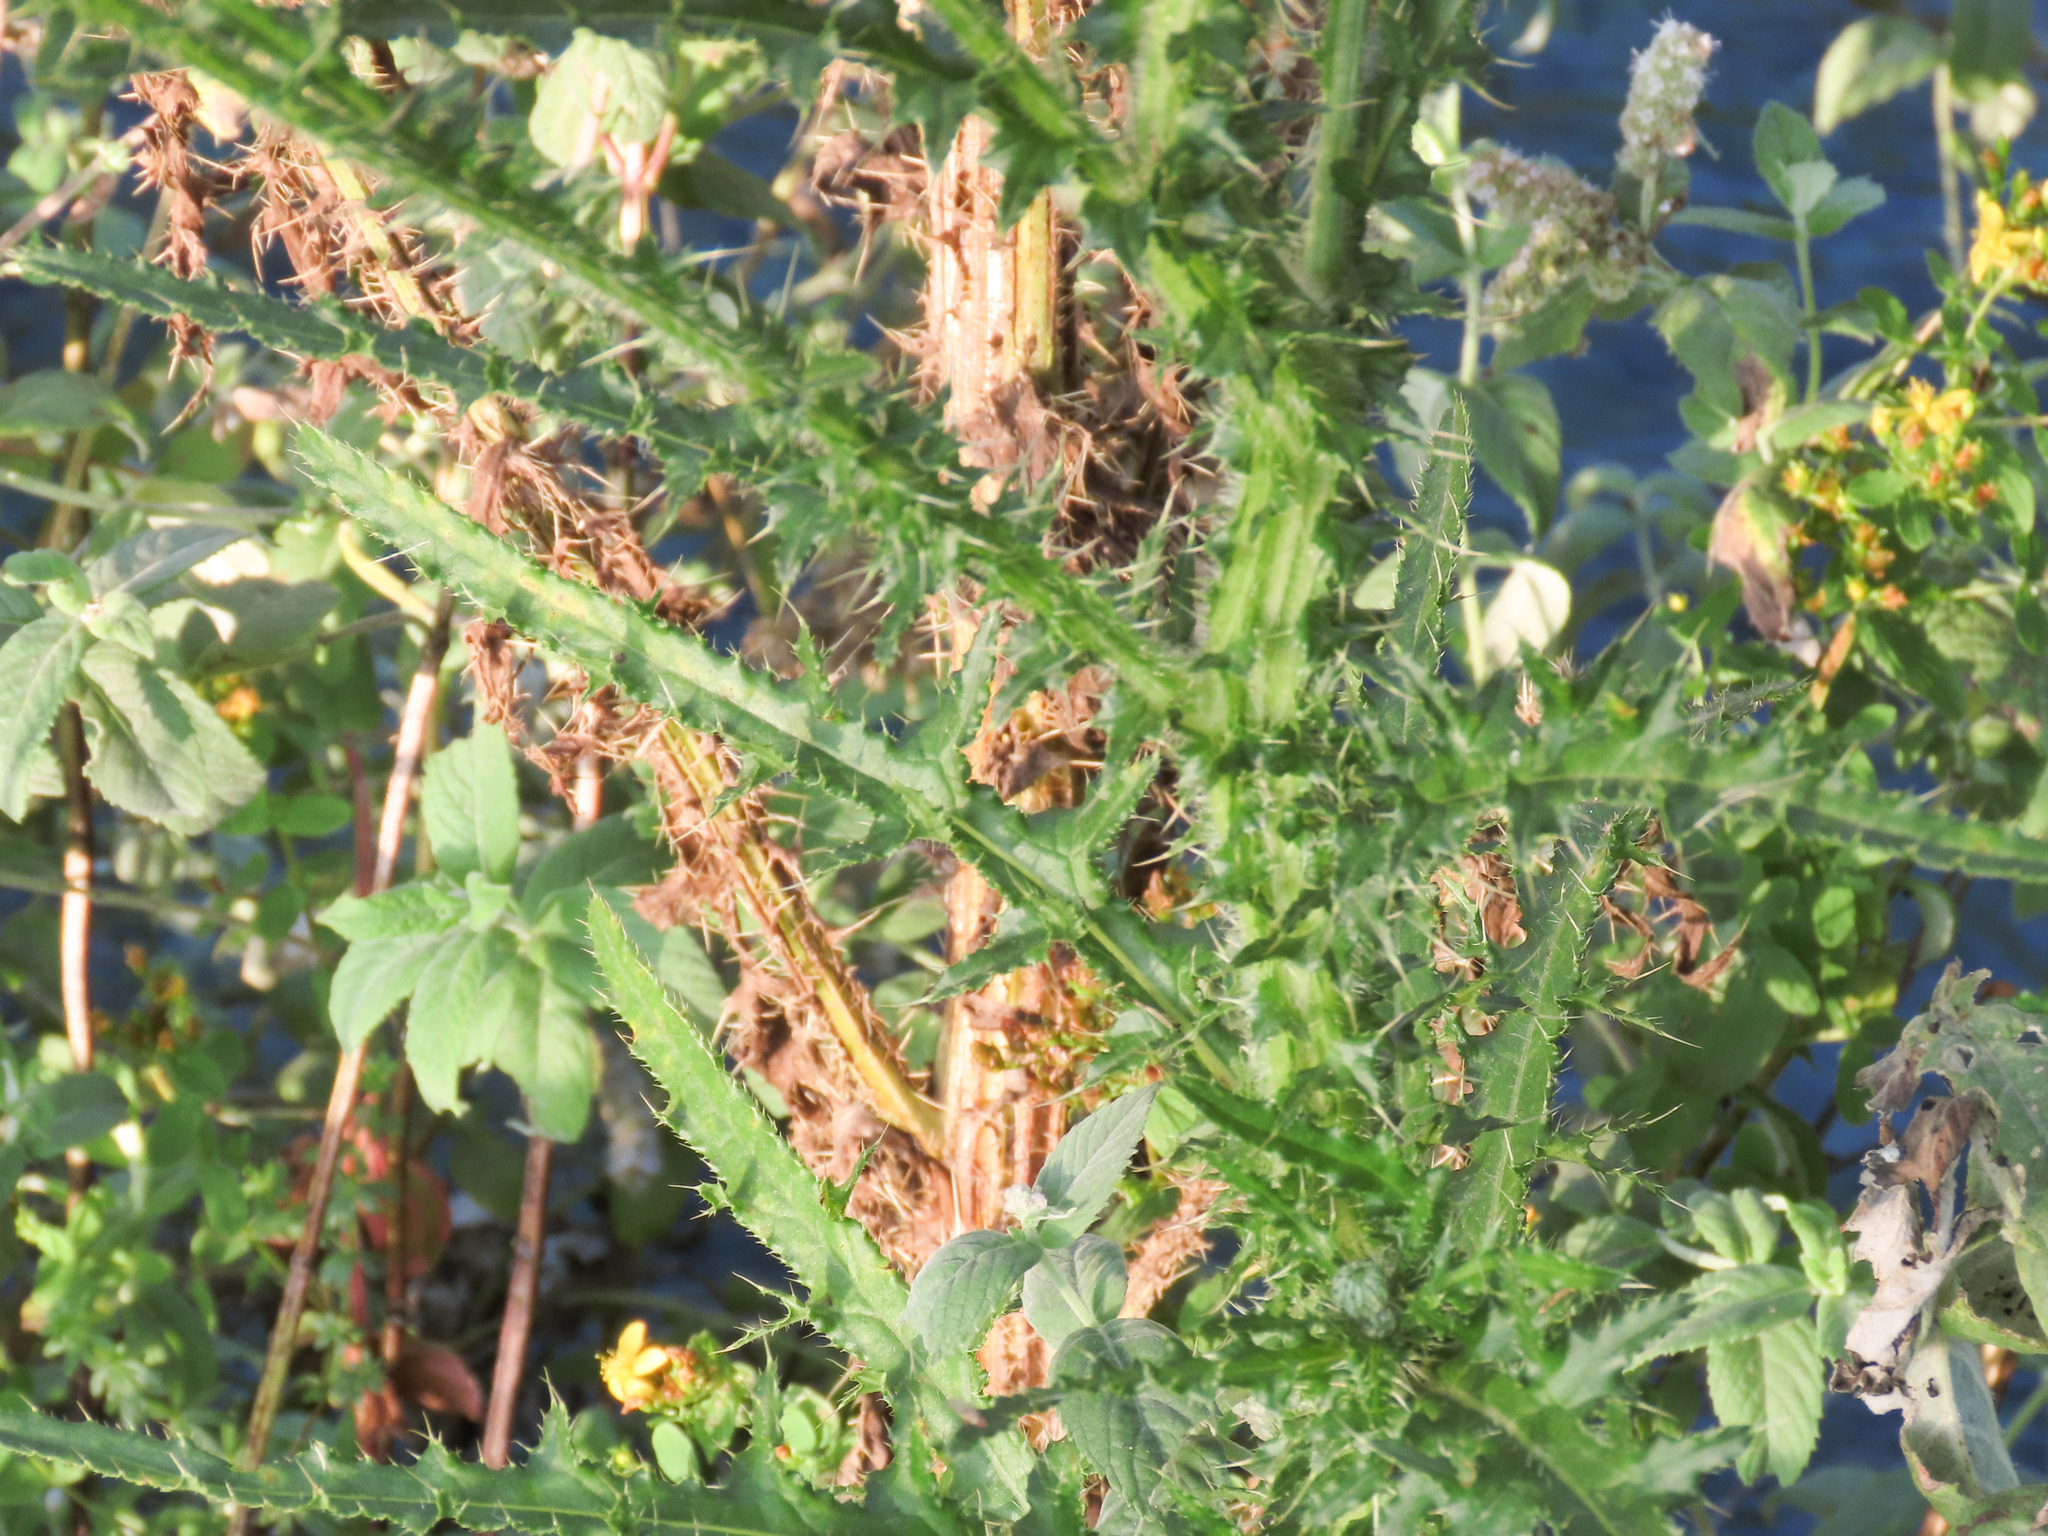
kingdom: Plantae
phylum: Tracheophyta
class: Magnoliopsida
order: Asterales
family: Asteraceae
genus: Cirsium
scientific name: Cirsium creticum
